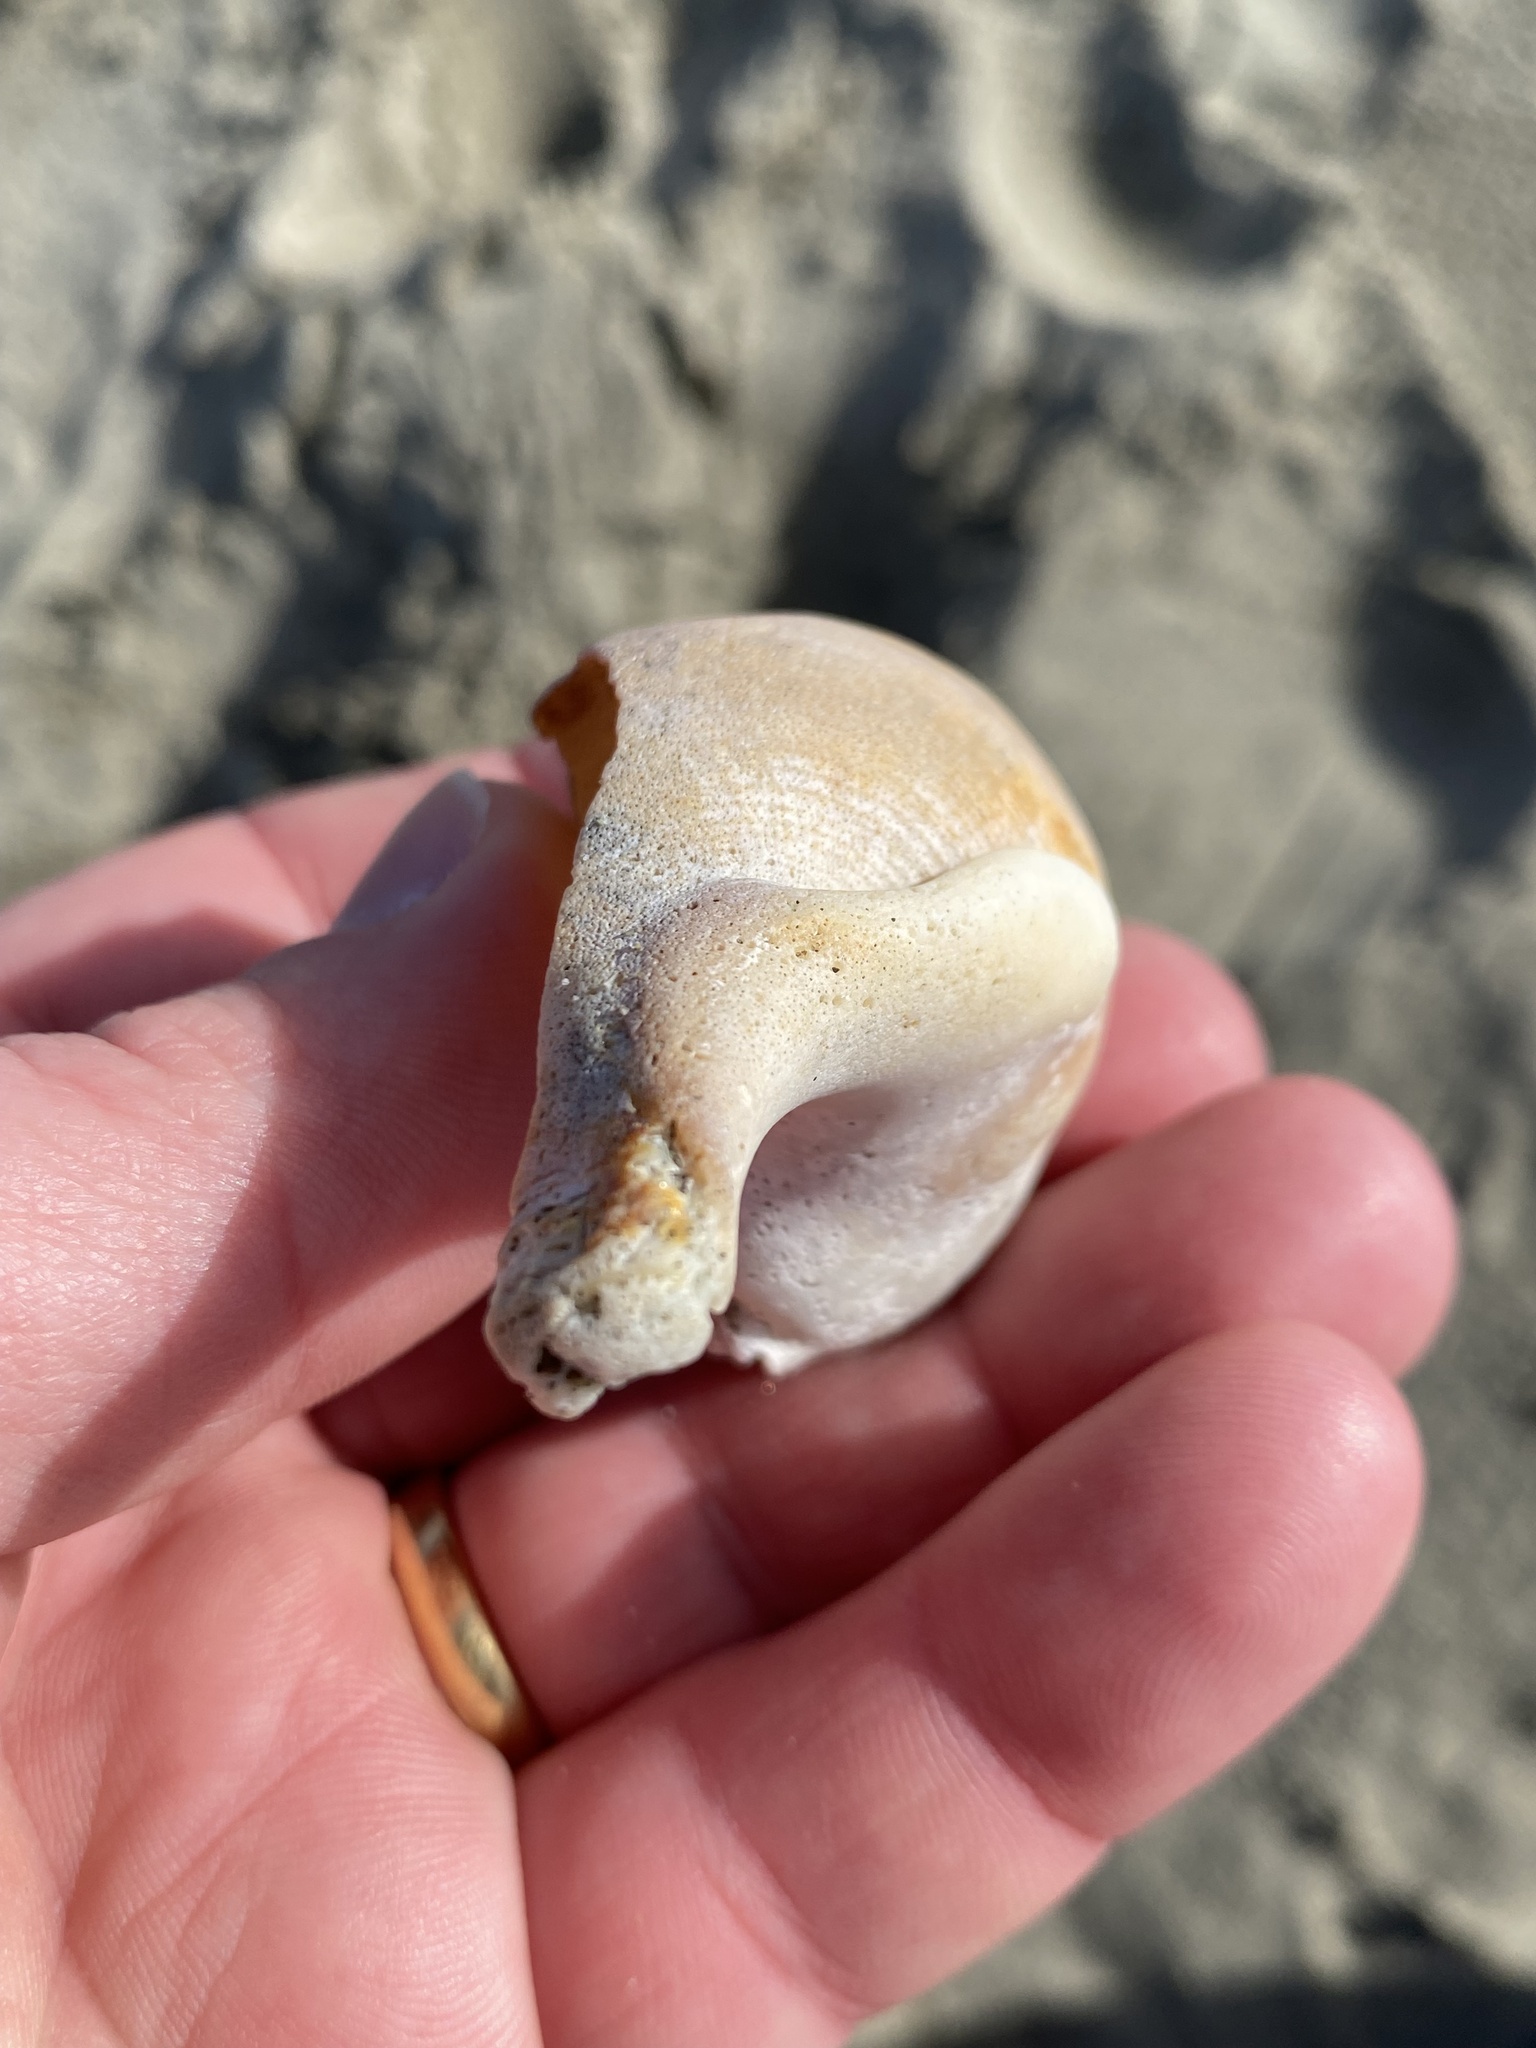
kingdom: Animalia
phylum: Mollusca
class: Gastropoda
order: Littorinimorpha
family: Struthiolariidae
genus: Struthiolaria
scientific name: Struthiolaria papulosa
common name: Large ostrich foot
